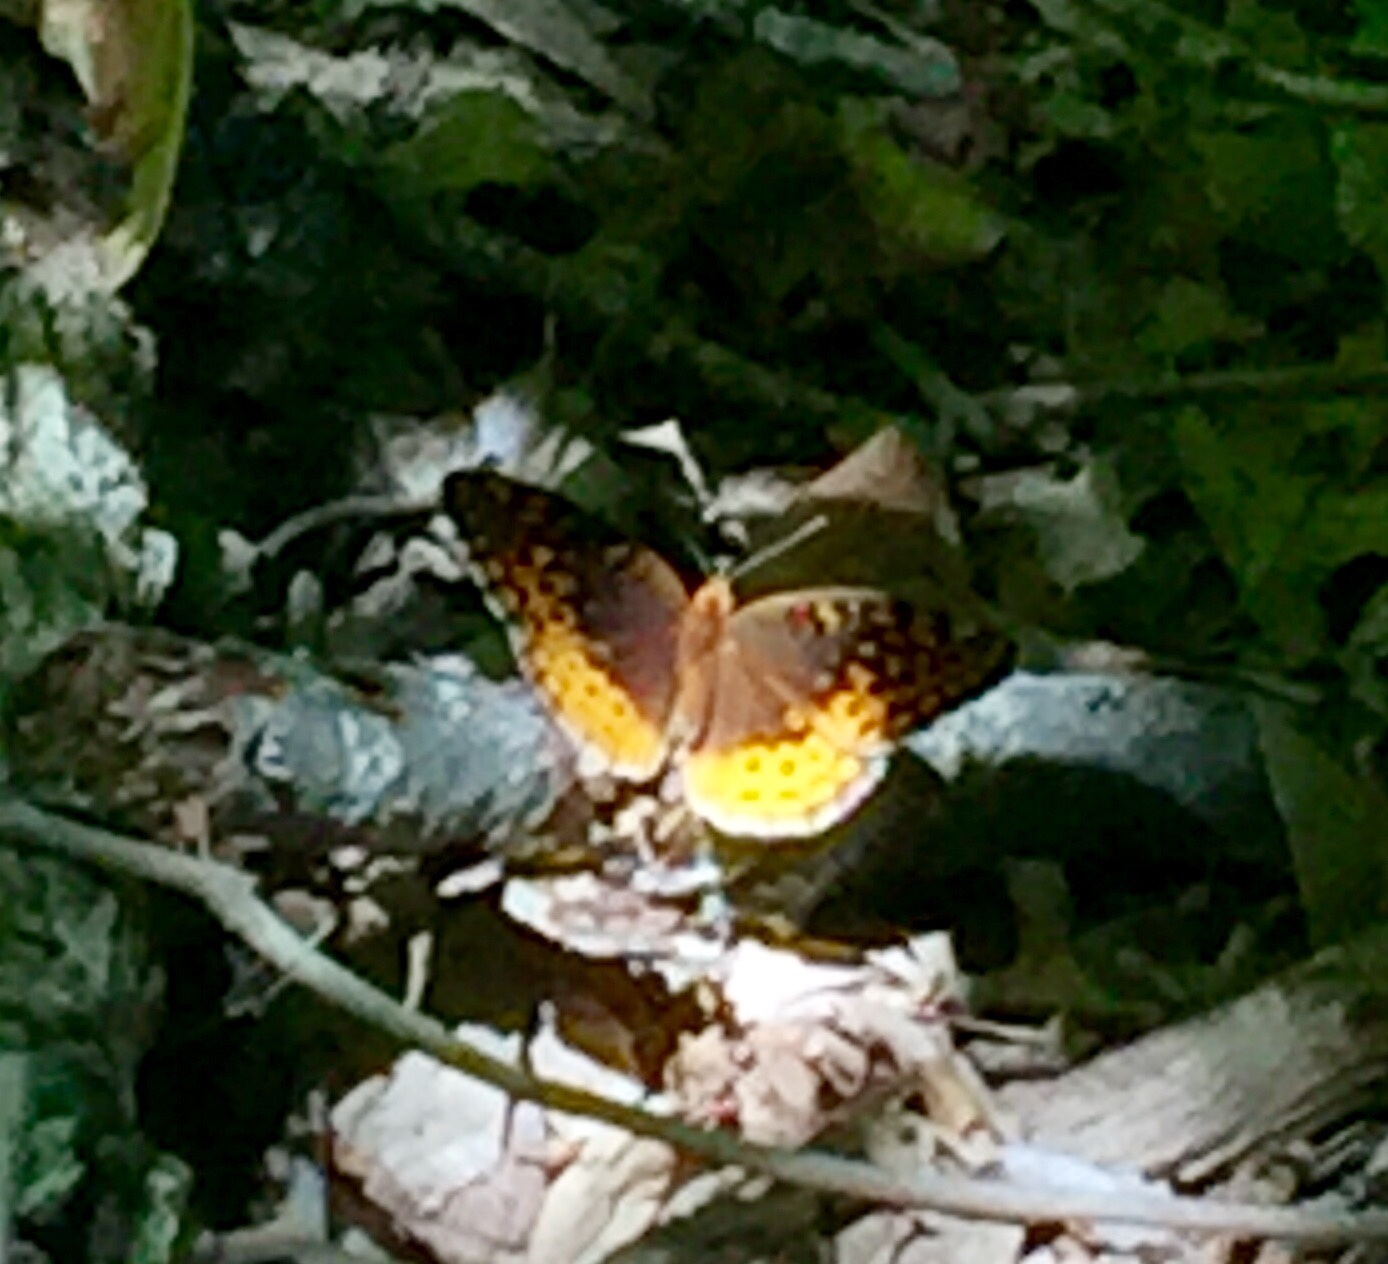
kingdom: Animalia
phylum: Arthropoda
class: Insecta
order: Lepidoptera
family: Nymphalidae
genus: Speyeria
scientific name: Speyeria cybele
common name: Great spangled fritillary
